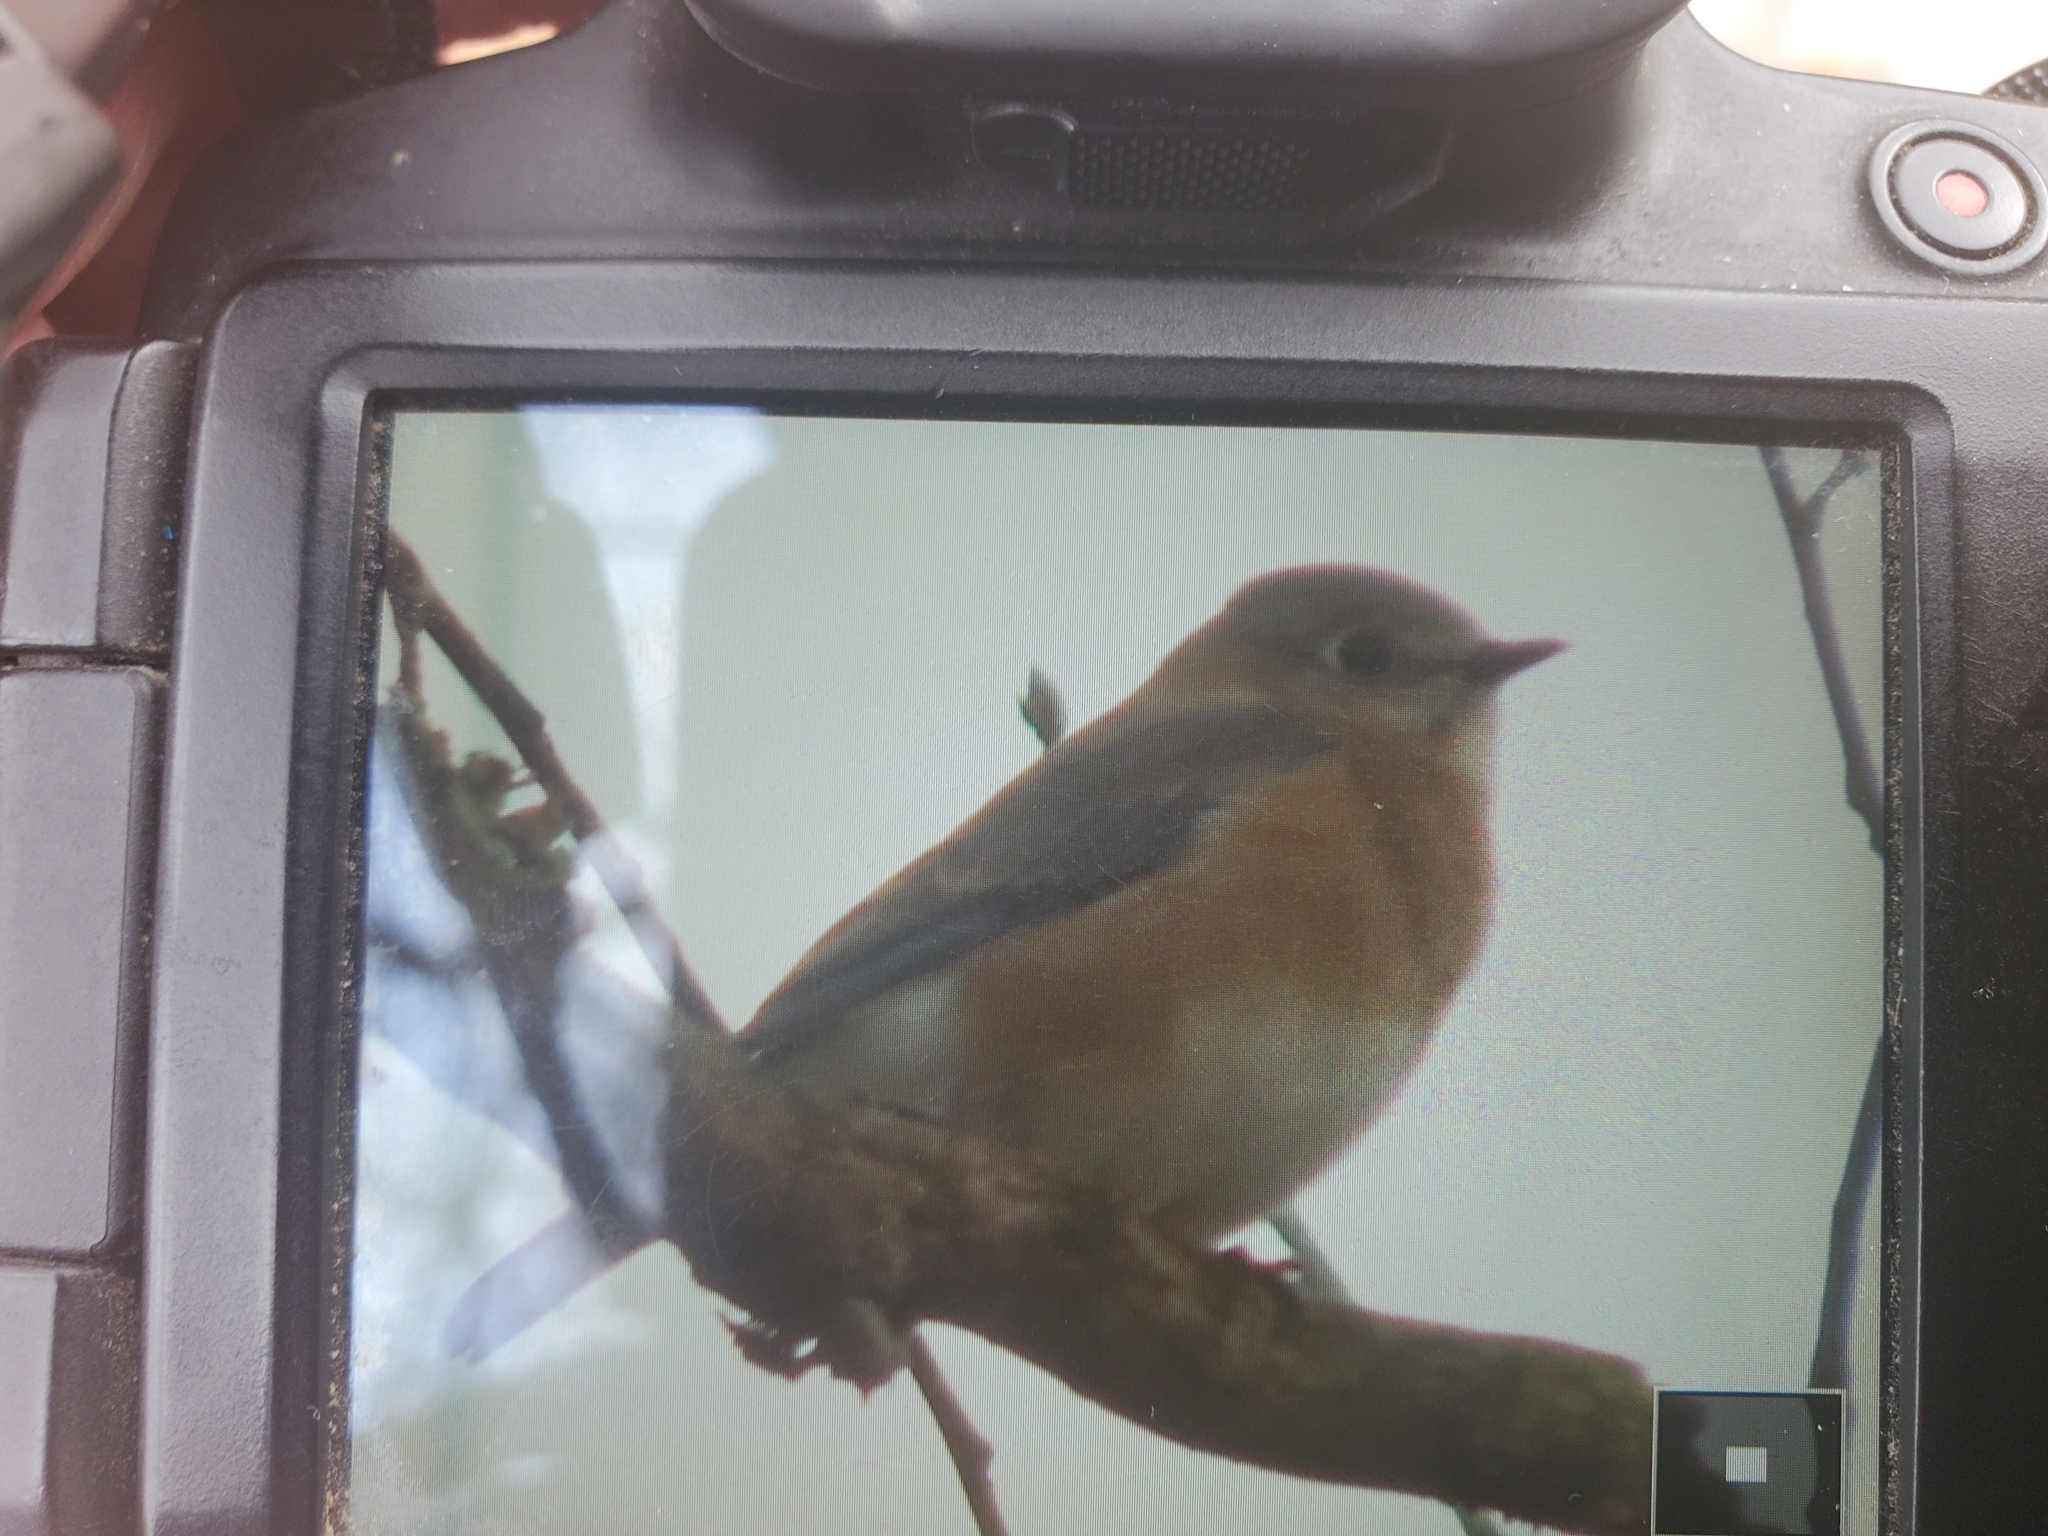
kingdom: Animalia
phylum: Chordata
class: Aves
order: Passeriformes
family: Turdidae
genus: Sialia
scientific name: Sialia sialis
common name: Eastern bluebird
